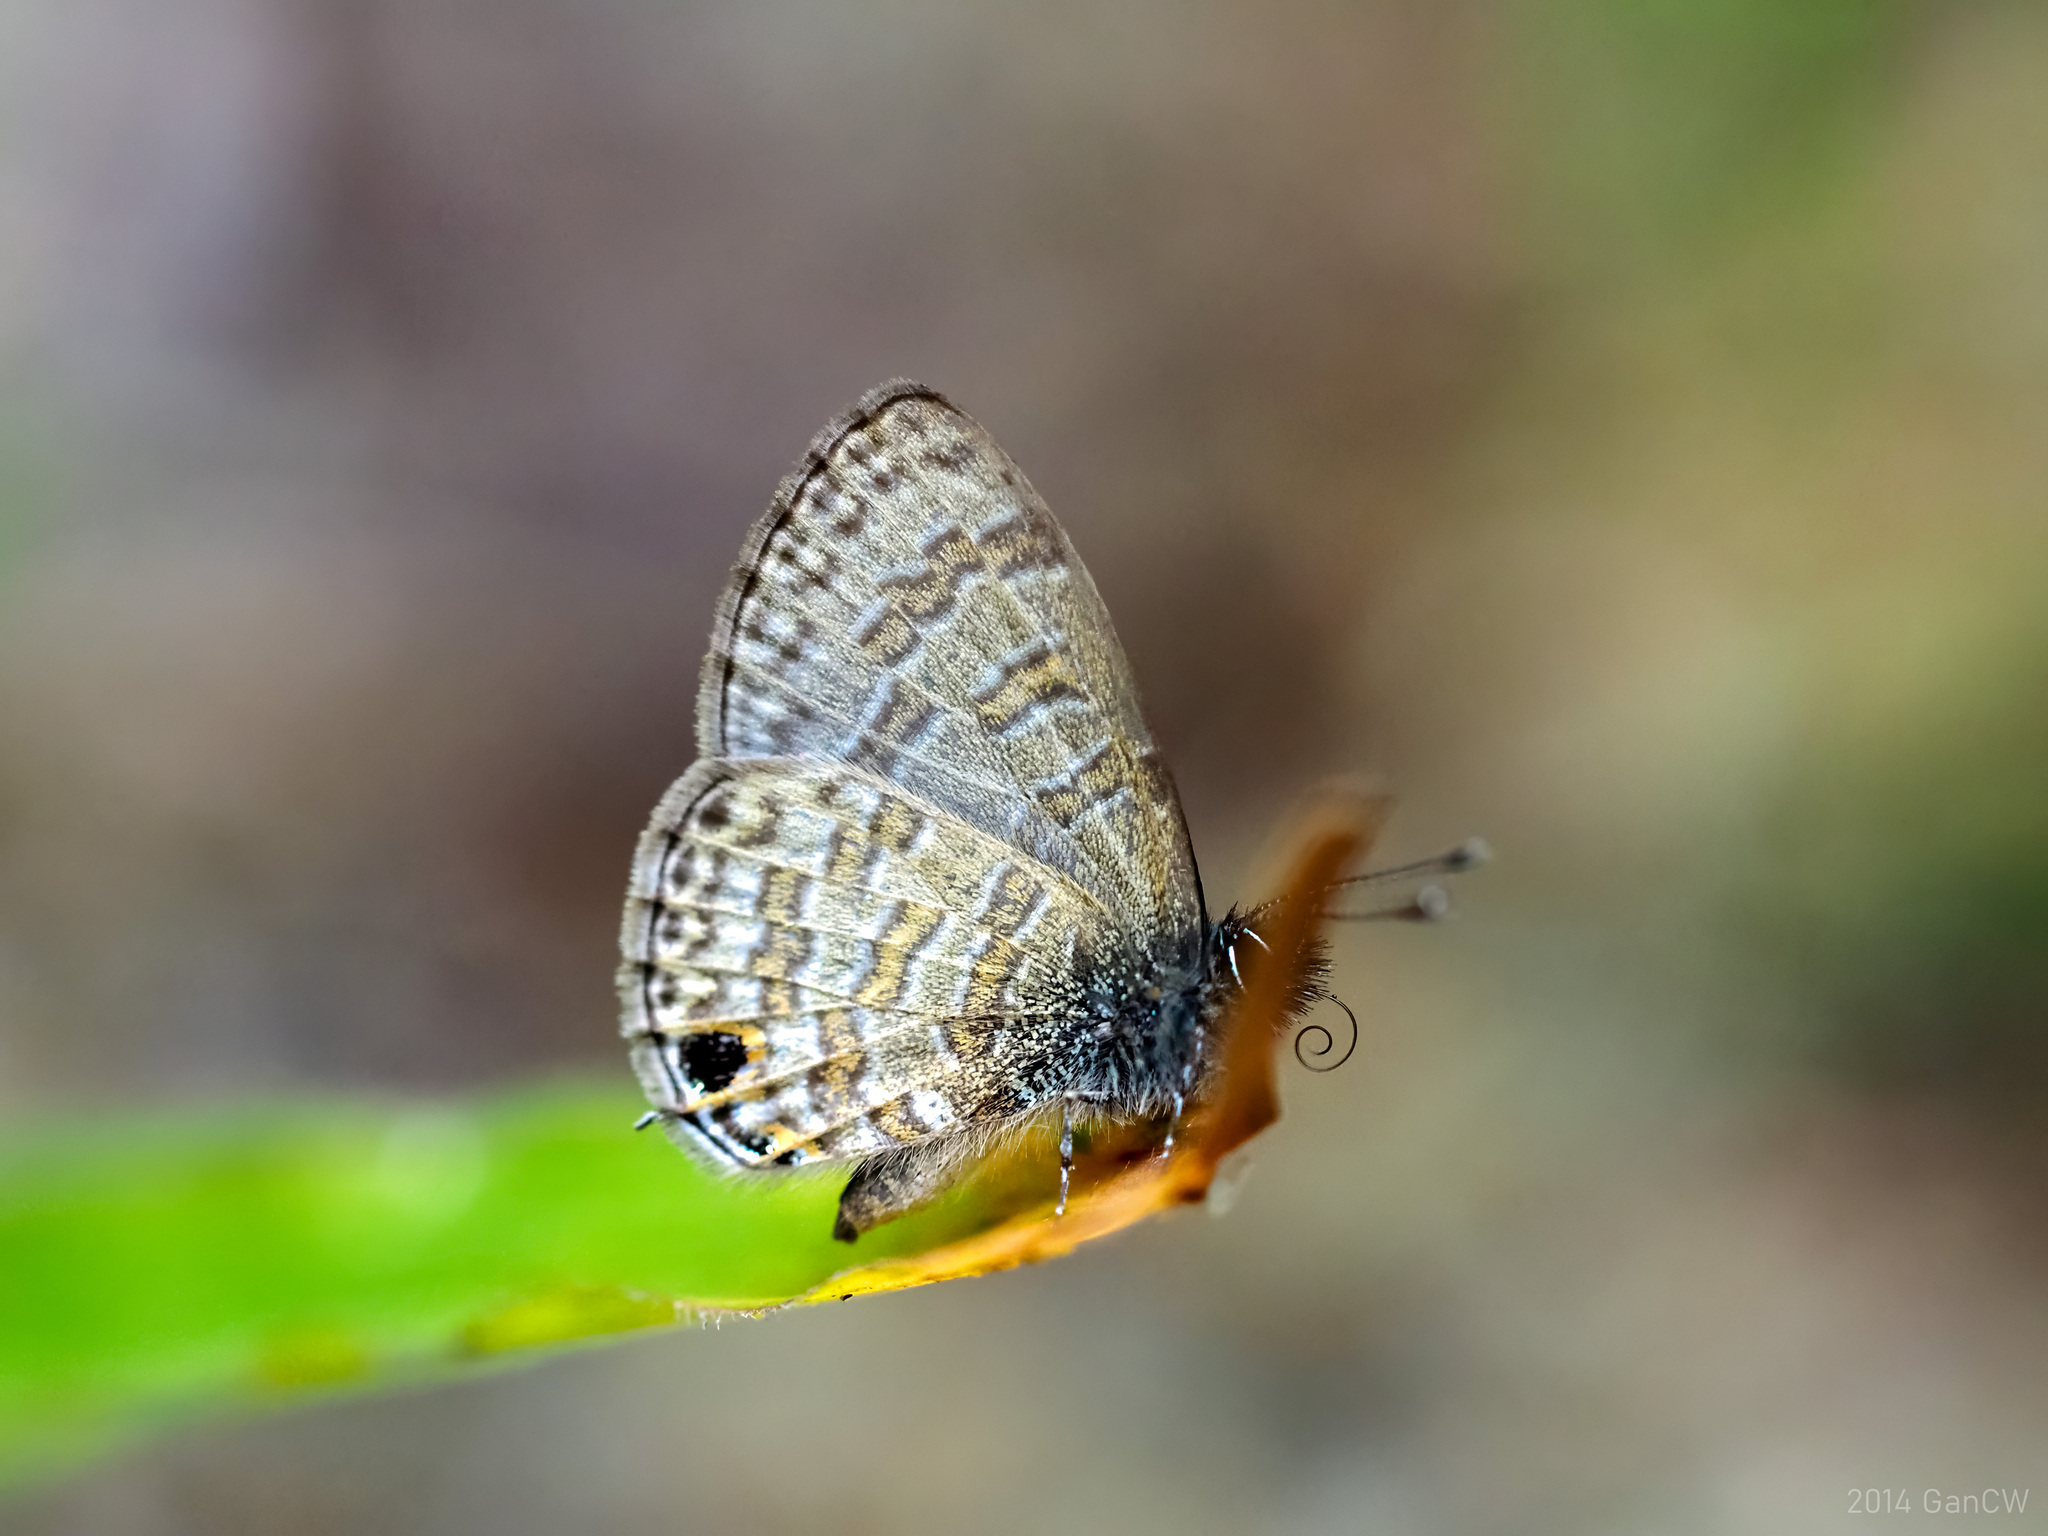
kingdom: Animalia
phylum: Arthropoda
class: Insecta
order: Lepidoptera
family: Lycaenidae
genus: Prosotas
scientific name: Prosotas nora
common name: Common line blue
